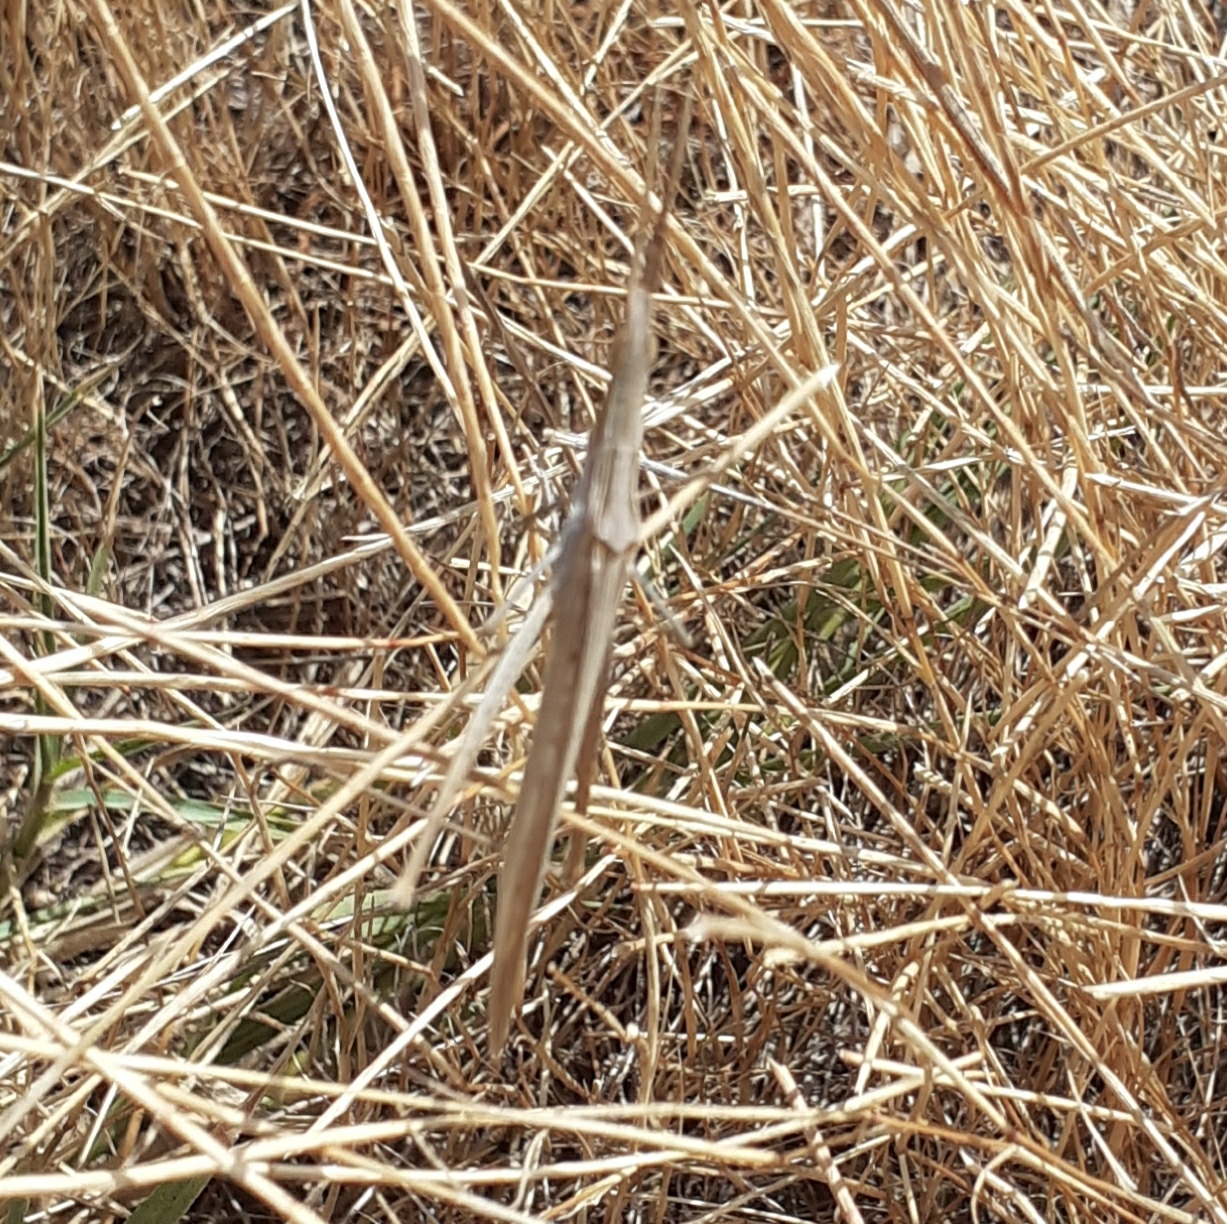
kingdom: Animalia
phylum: Arthropoda
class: Insecta
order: Orthoptera
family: Acrididae
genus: Acrida
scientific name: Acrida ungarica
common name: Common cone-headed grasshopper
